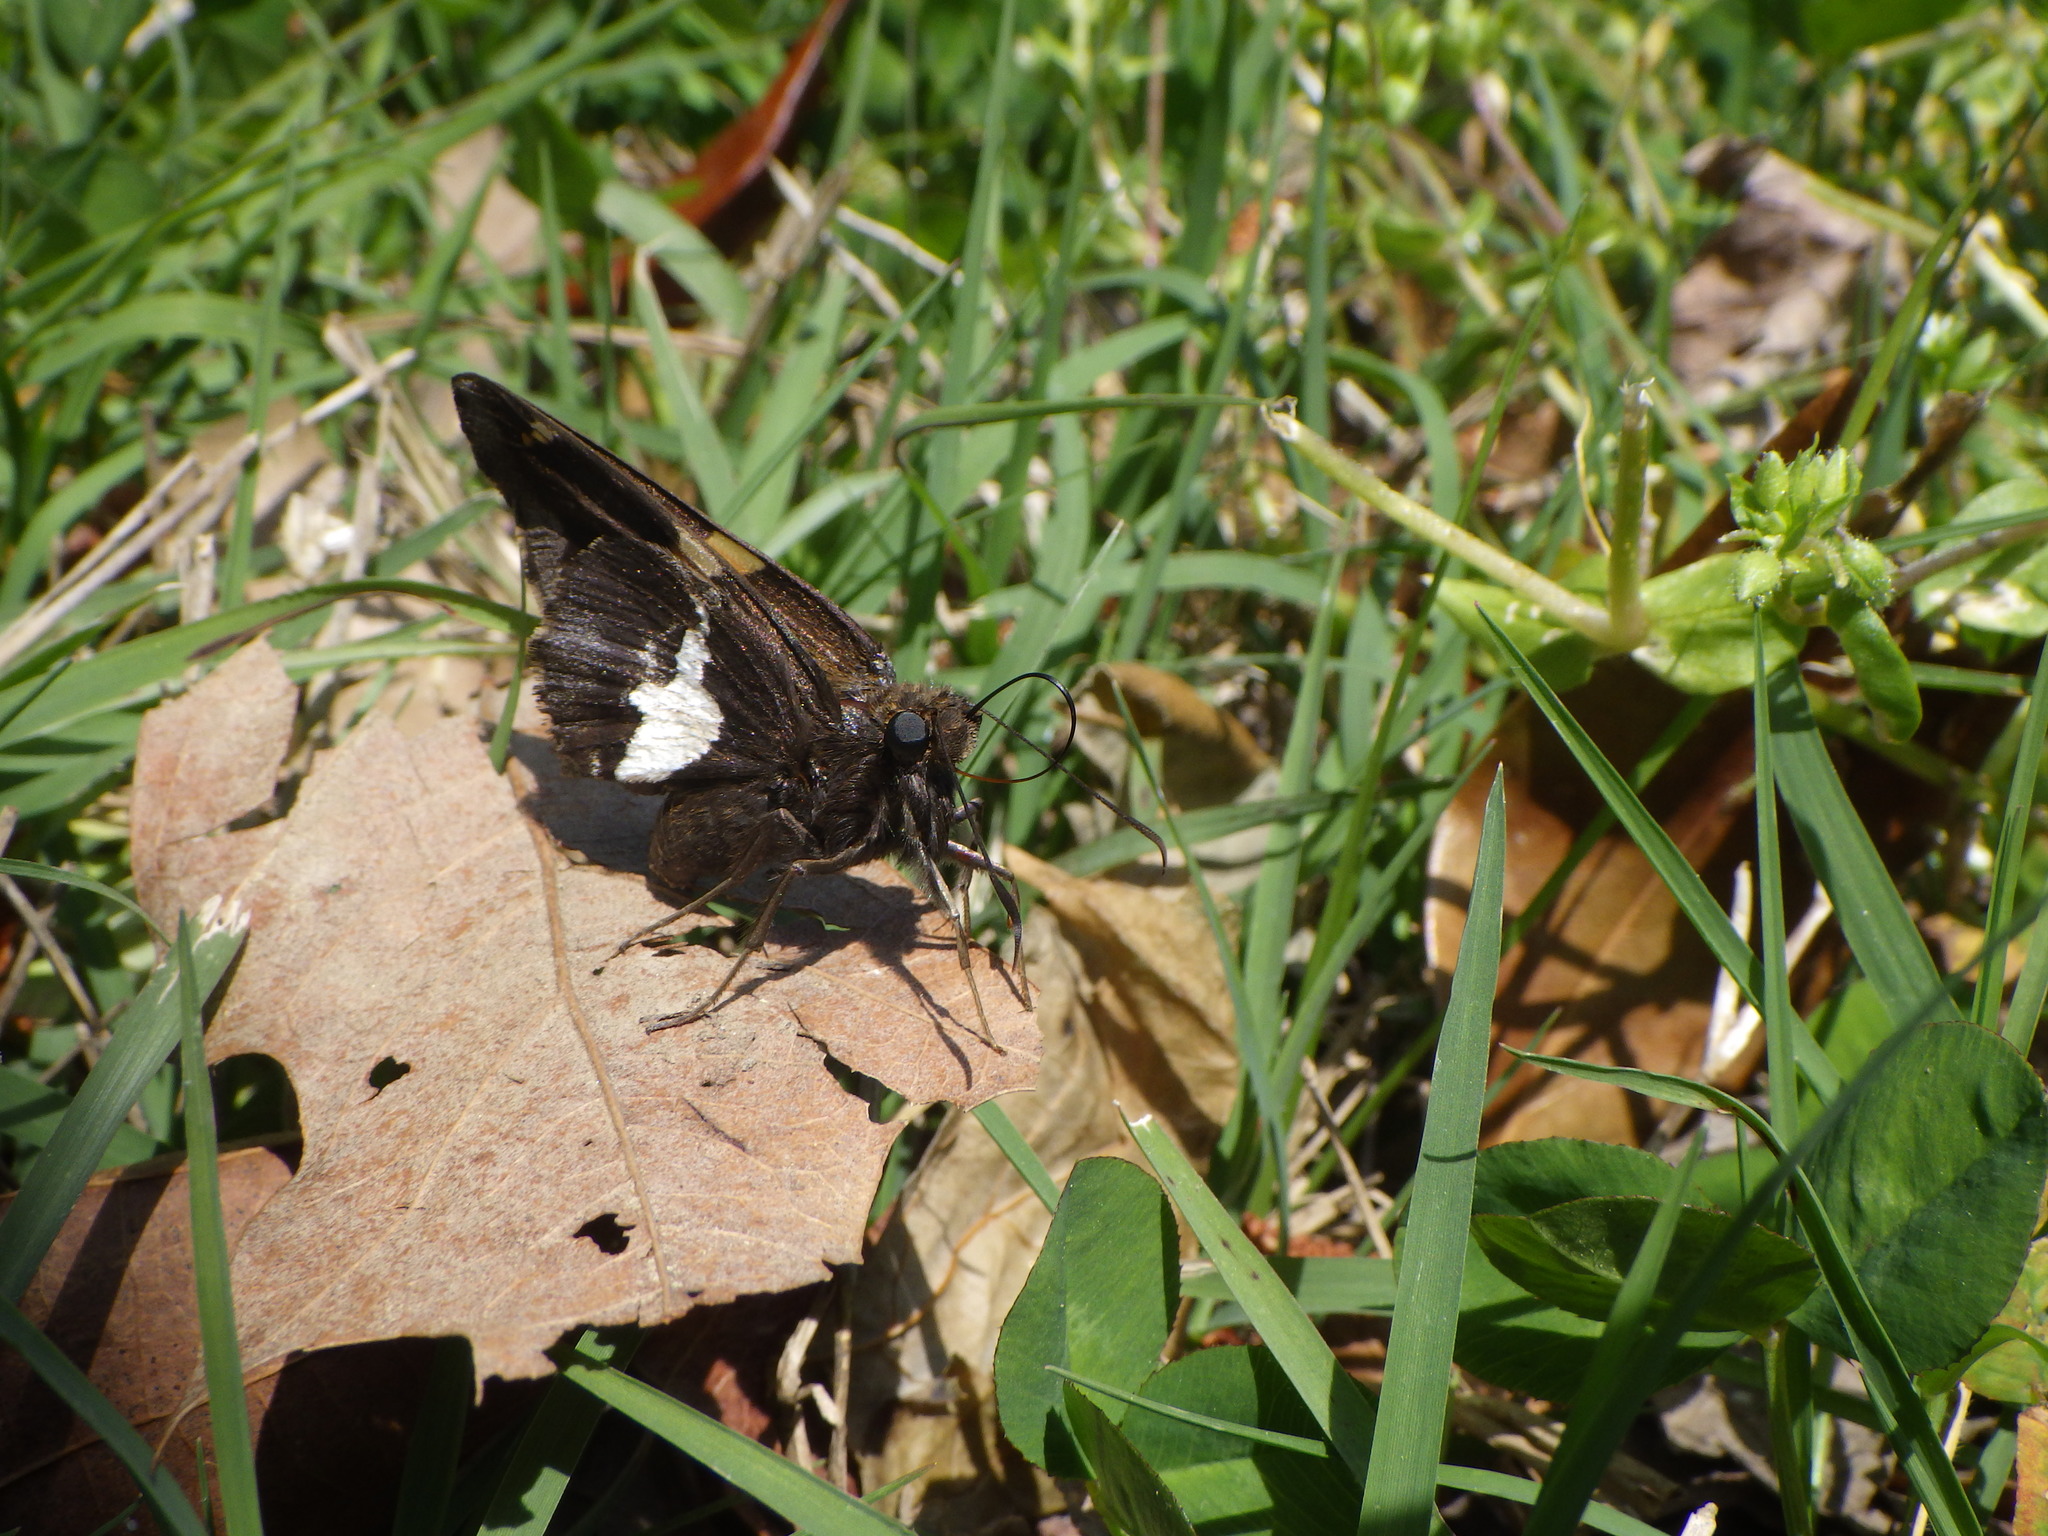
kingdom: Animalia
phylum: Arthropoda
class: Insecta
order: Lepidoptera
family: Hesperiidae
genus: Epargyreus
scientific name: Epargyreus clarus
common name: Silver-spotted skipper
